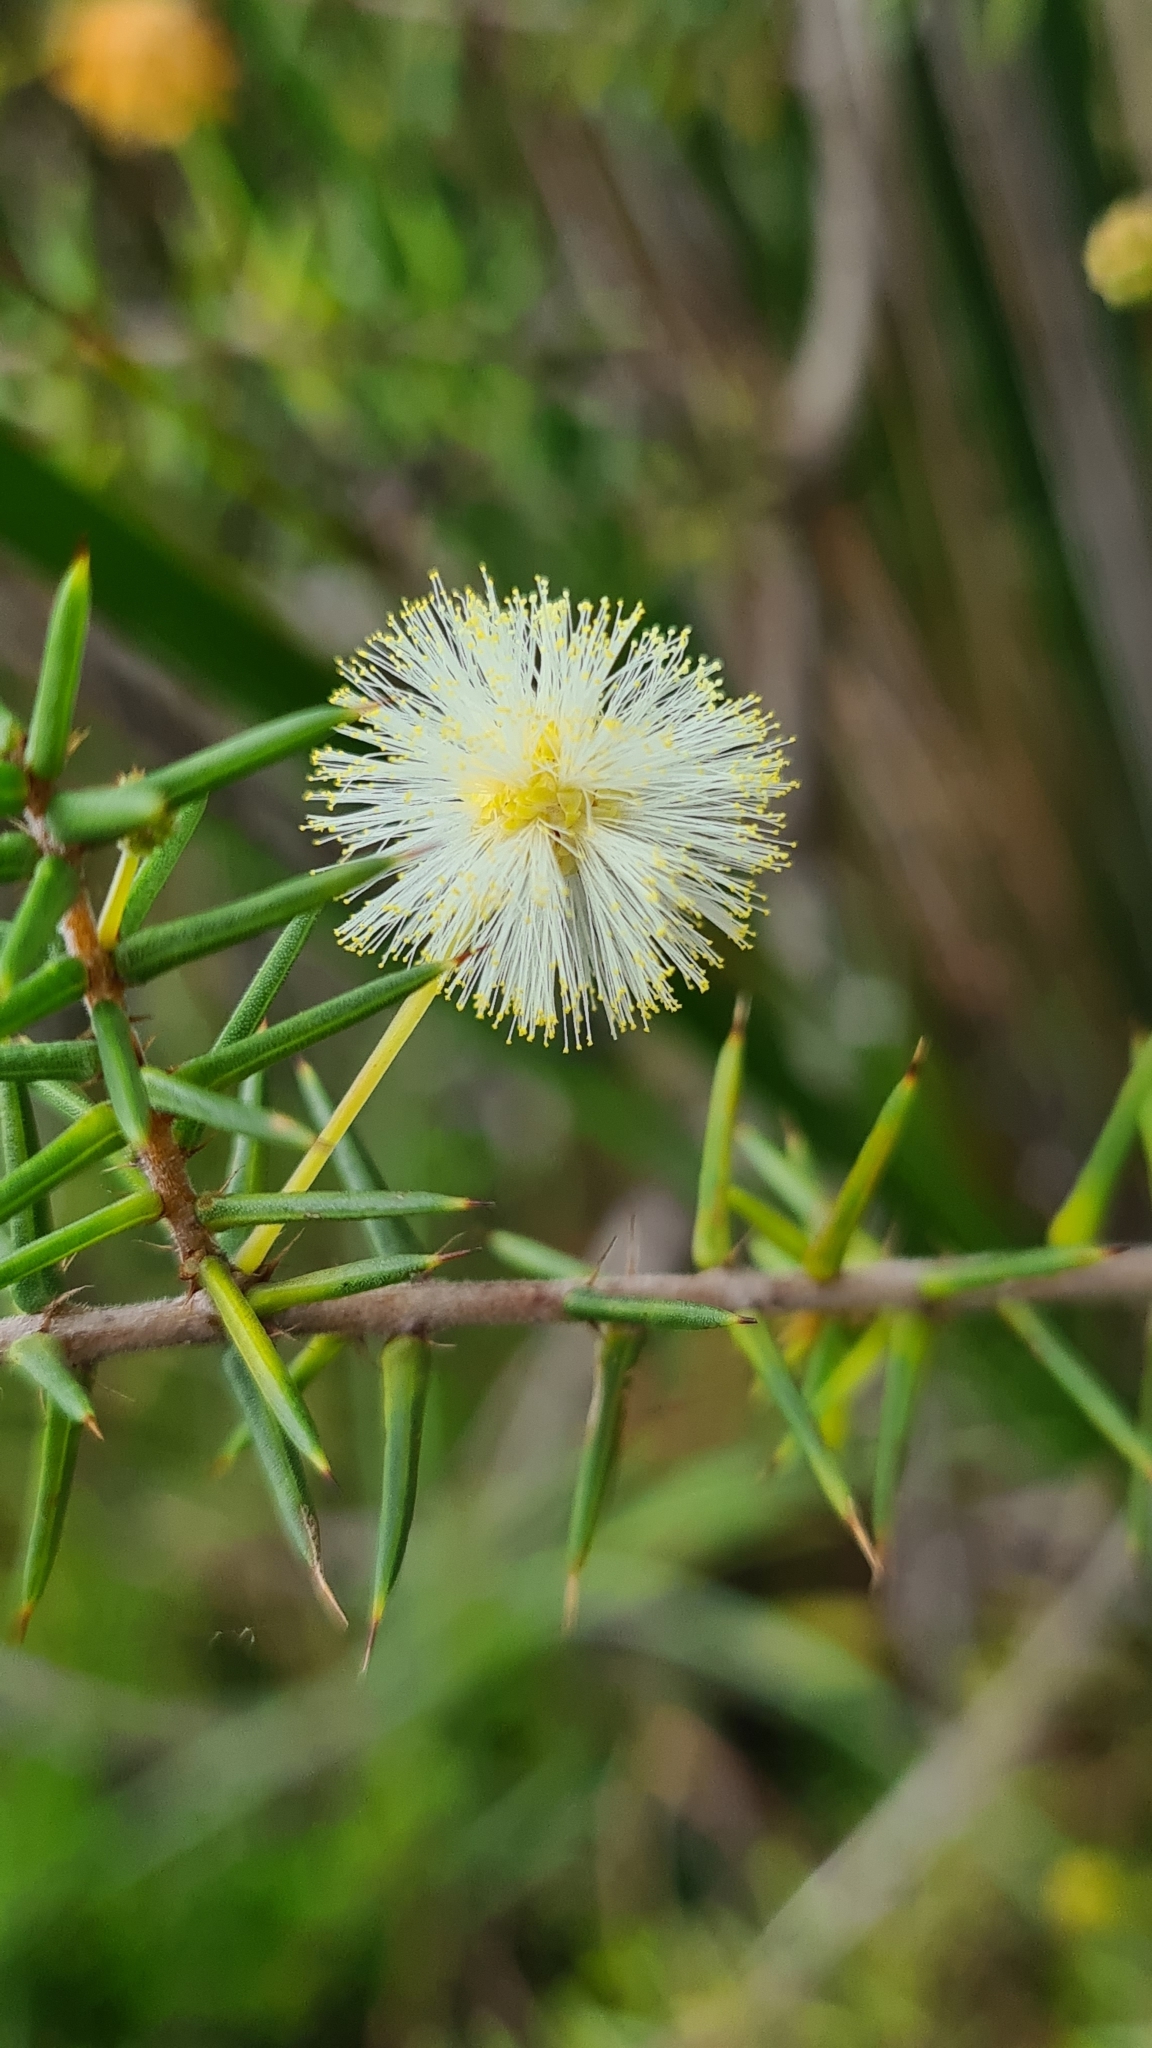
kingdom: Plantae
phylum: Tracheophyta
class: Magnoliopsida
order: Fabales
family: Fabaceae
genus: Acacia
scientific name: Acacia ulicifolia
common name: Juniper wattle
